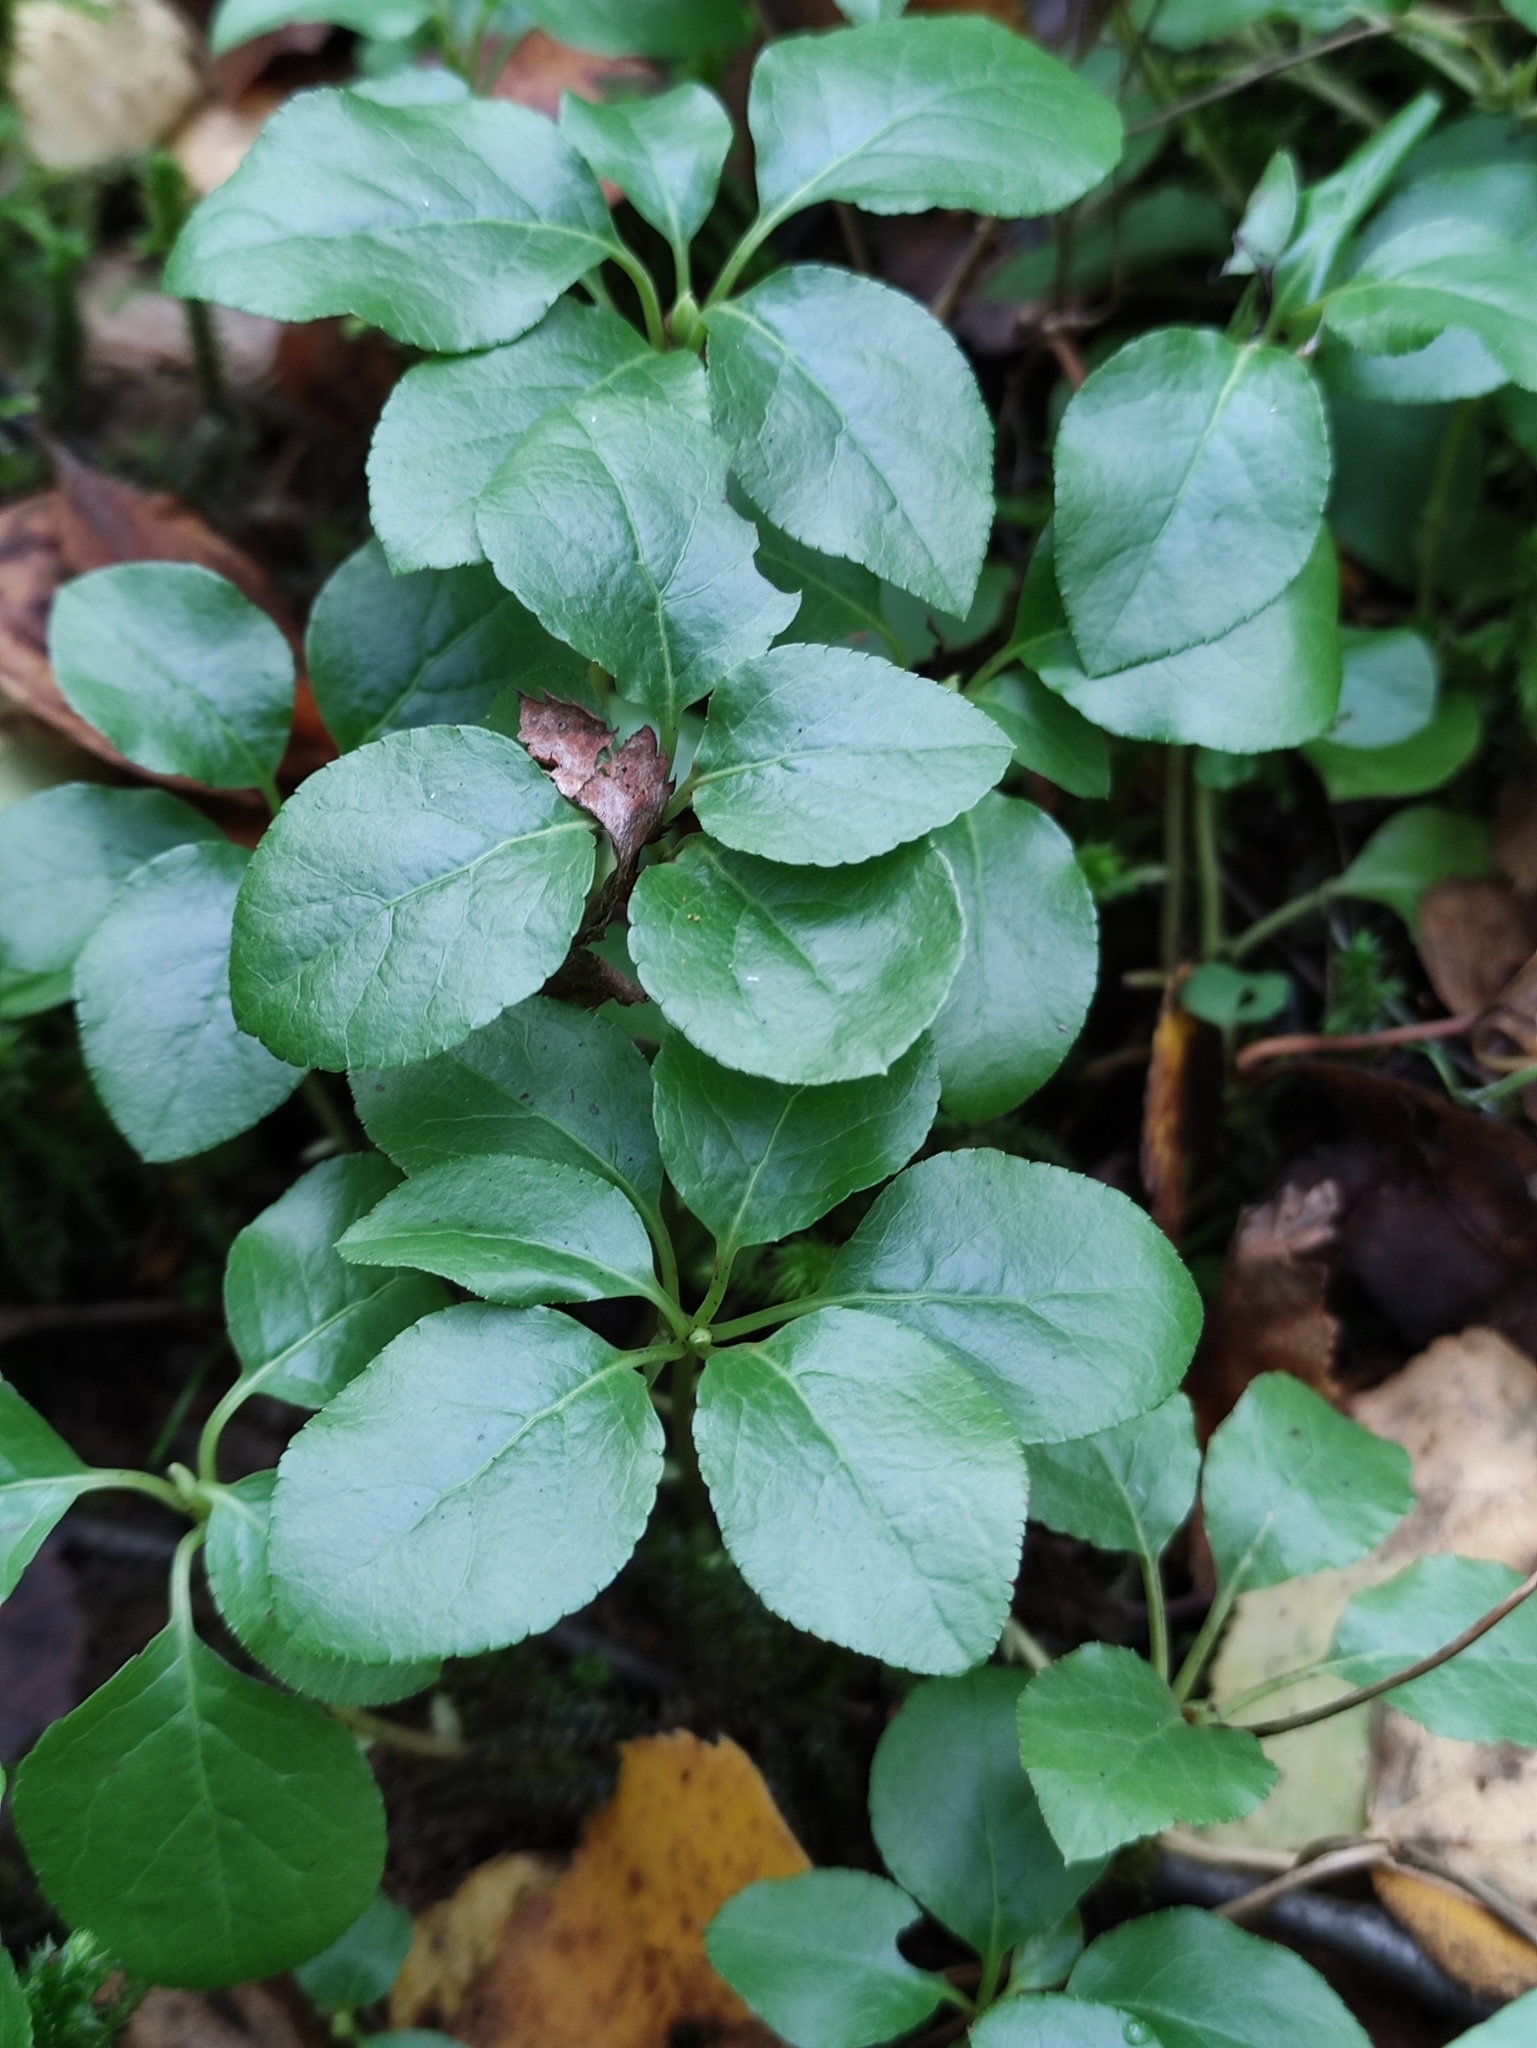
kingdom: Plantae
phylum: Tracheophyta
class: Magnoliopsida
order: Ericales
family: Ericaceae
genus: Orthilia
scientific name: Orthilia secunda
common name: One-sided orthilia
